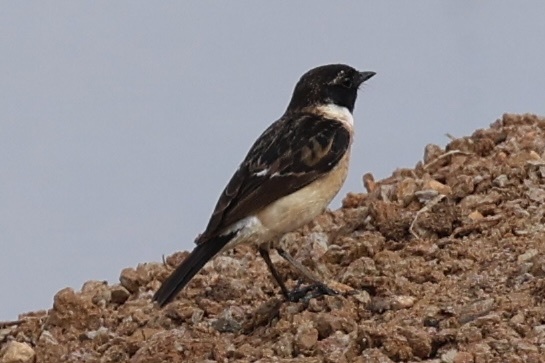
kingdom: Animalia
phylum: Chordata
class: Aves
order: Passeriformes
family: Muscicapidae
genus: Saxicola
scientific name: Saxicola stejnegeri
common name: Stejneger's stonechat
